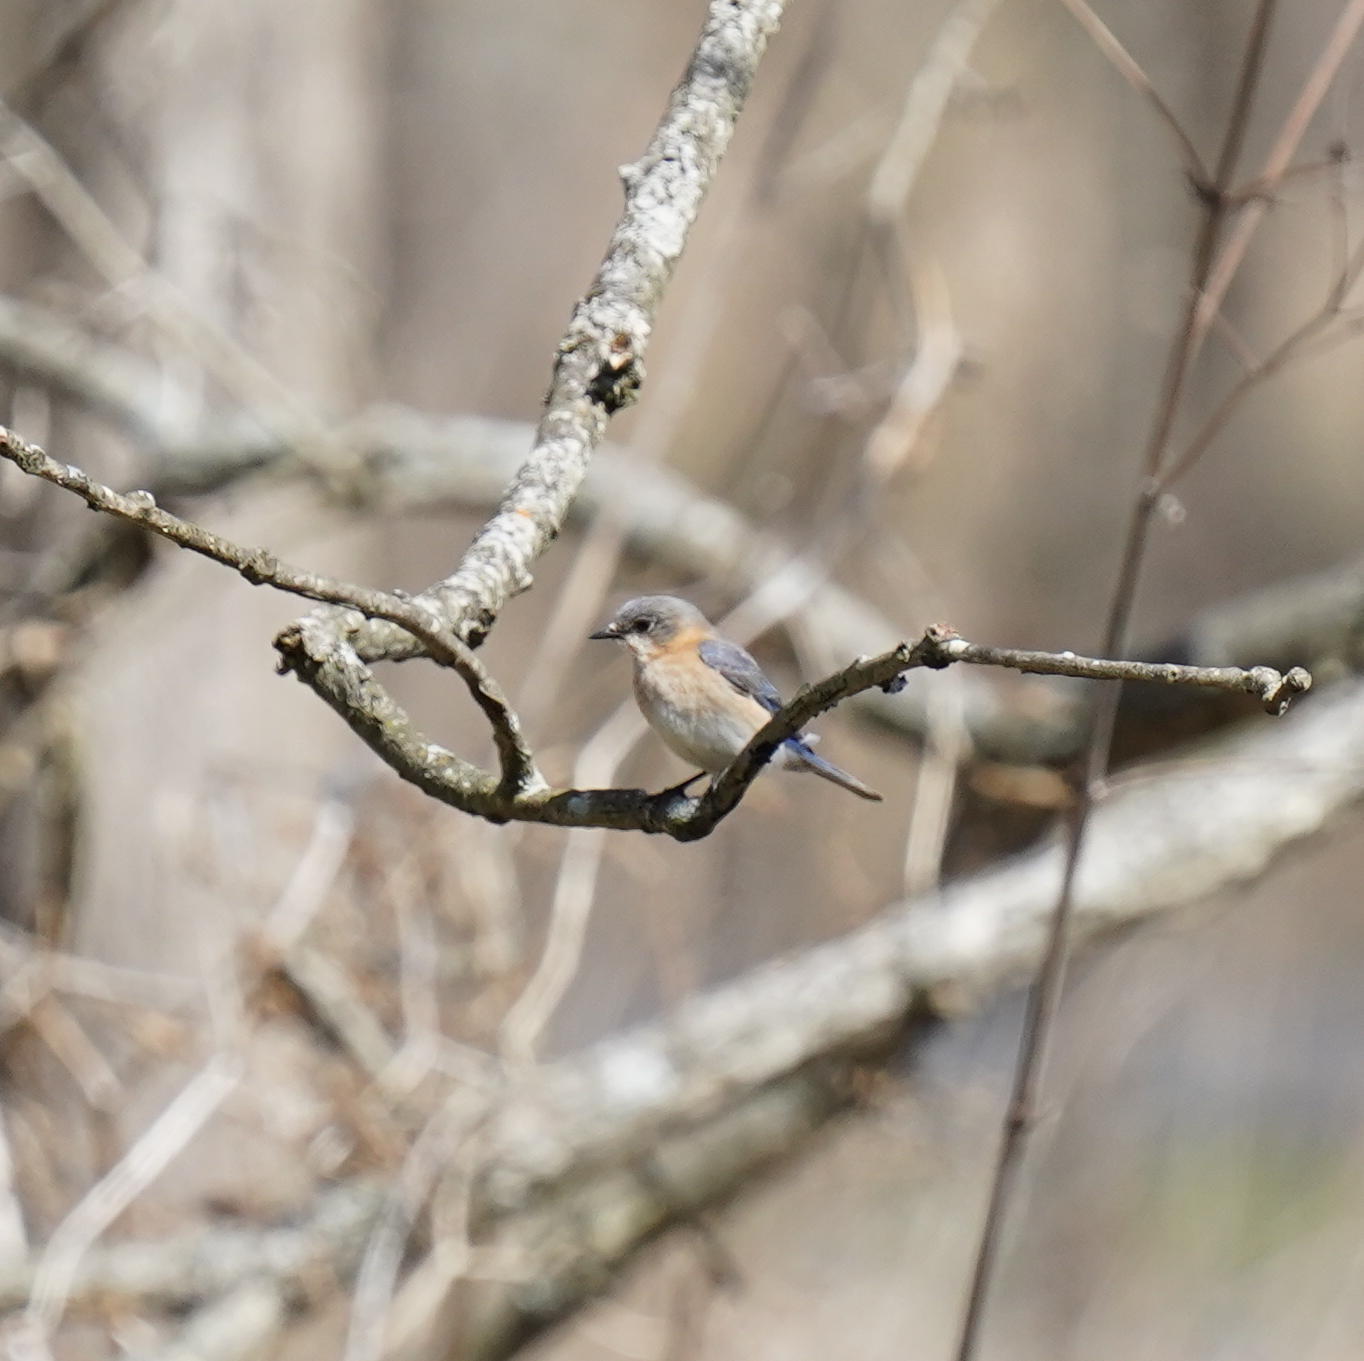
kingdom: Animalia
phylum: Chordata
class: Aves
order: Passeriformes
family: Turdidae
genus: Sialia
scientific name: Sialia sialis
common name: Eastern bluebird
